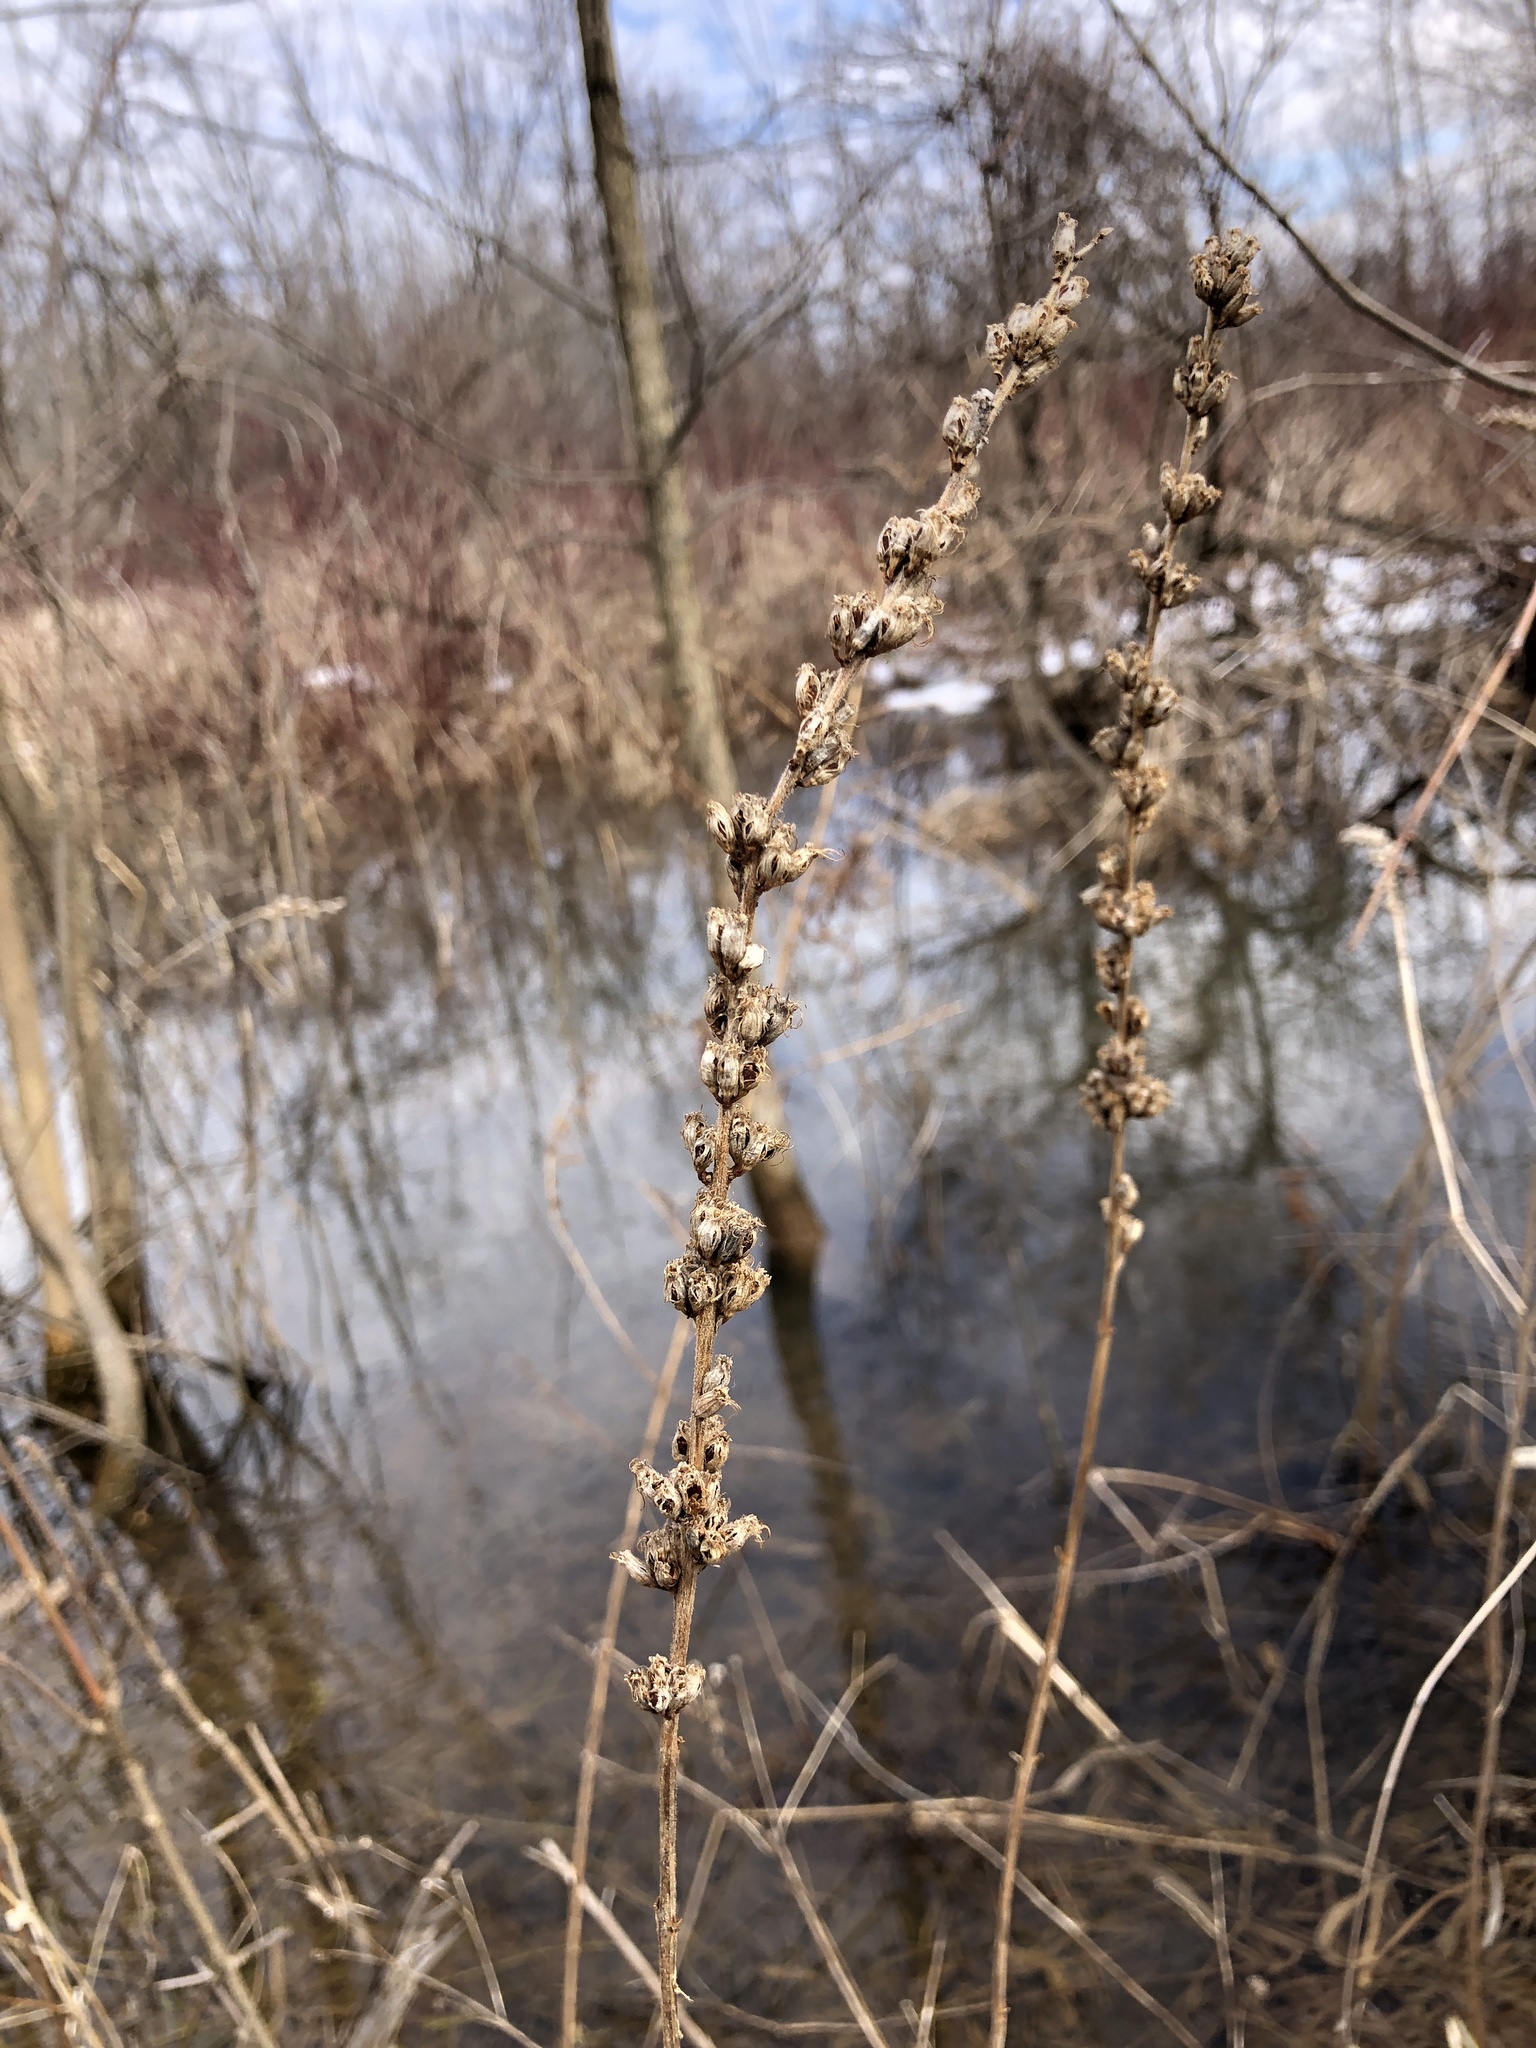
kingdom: Plantae
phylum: Tracheophyta
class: Magnoliopsida
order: Myrtales
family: Lythraceae
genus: Lythrum
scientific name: Lythrum salicaria
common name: Purple loosestrife
